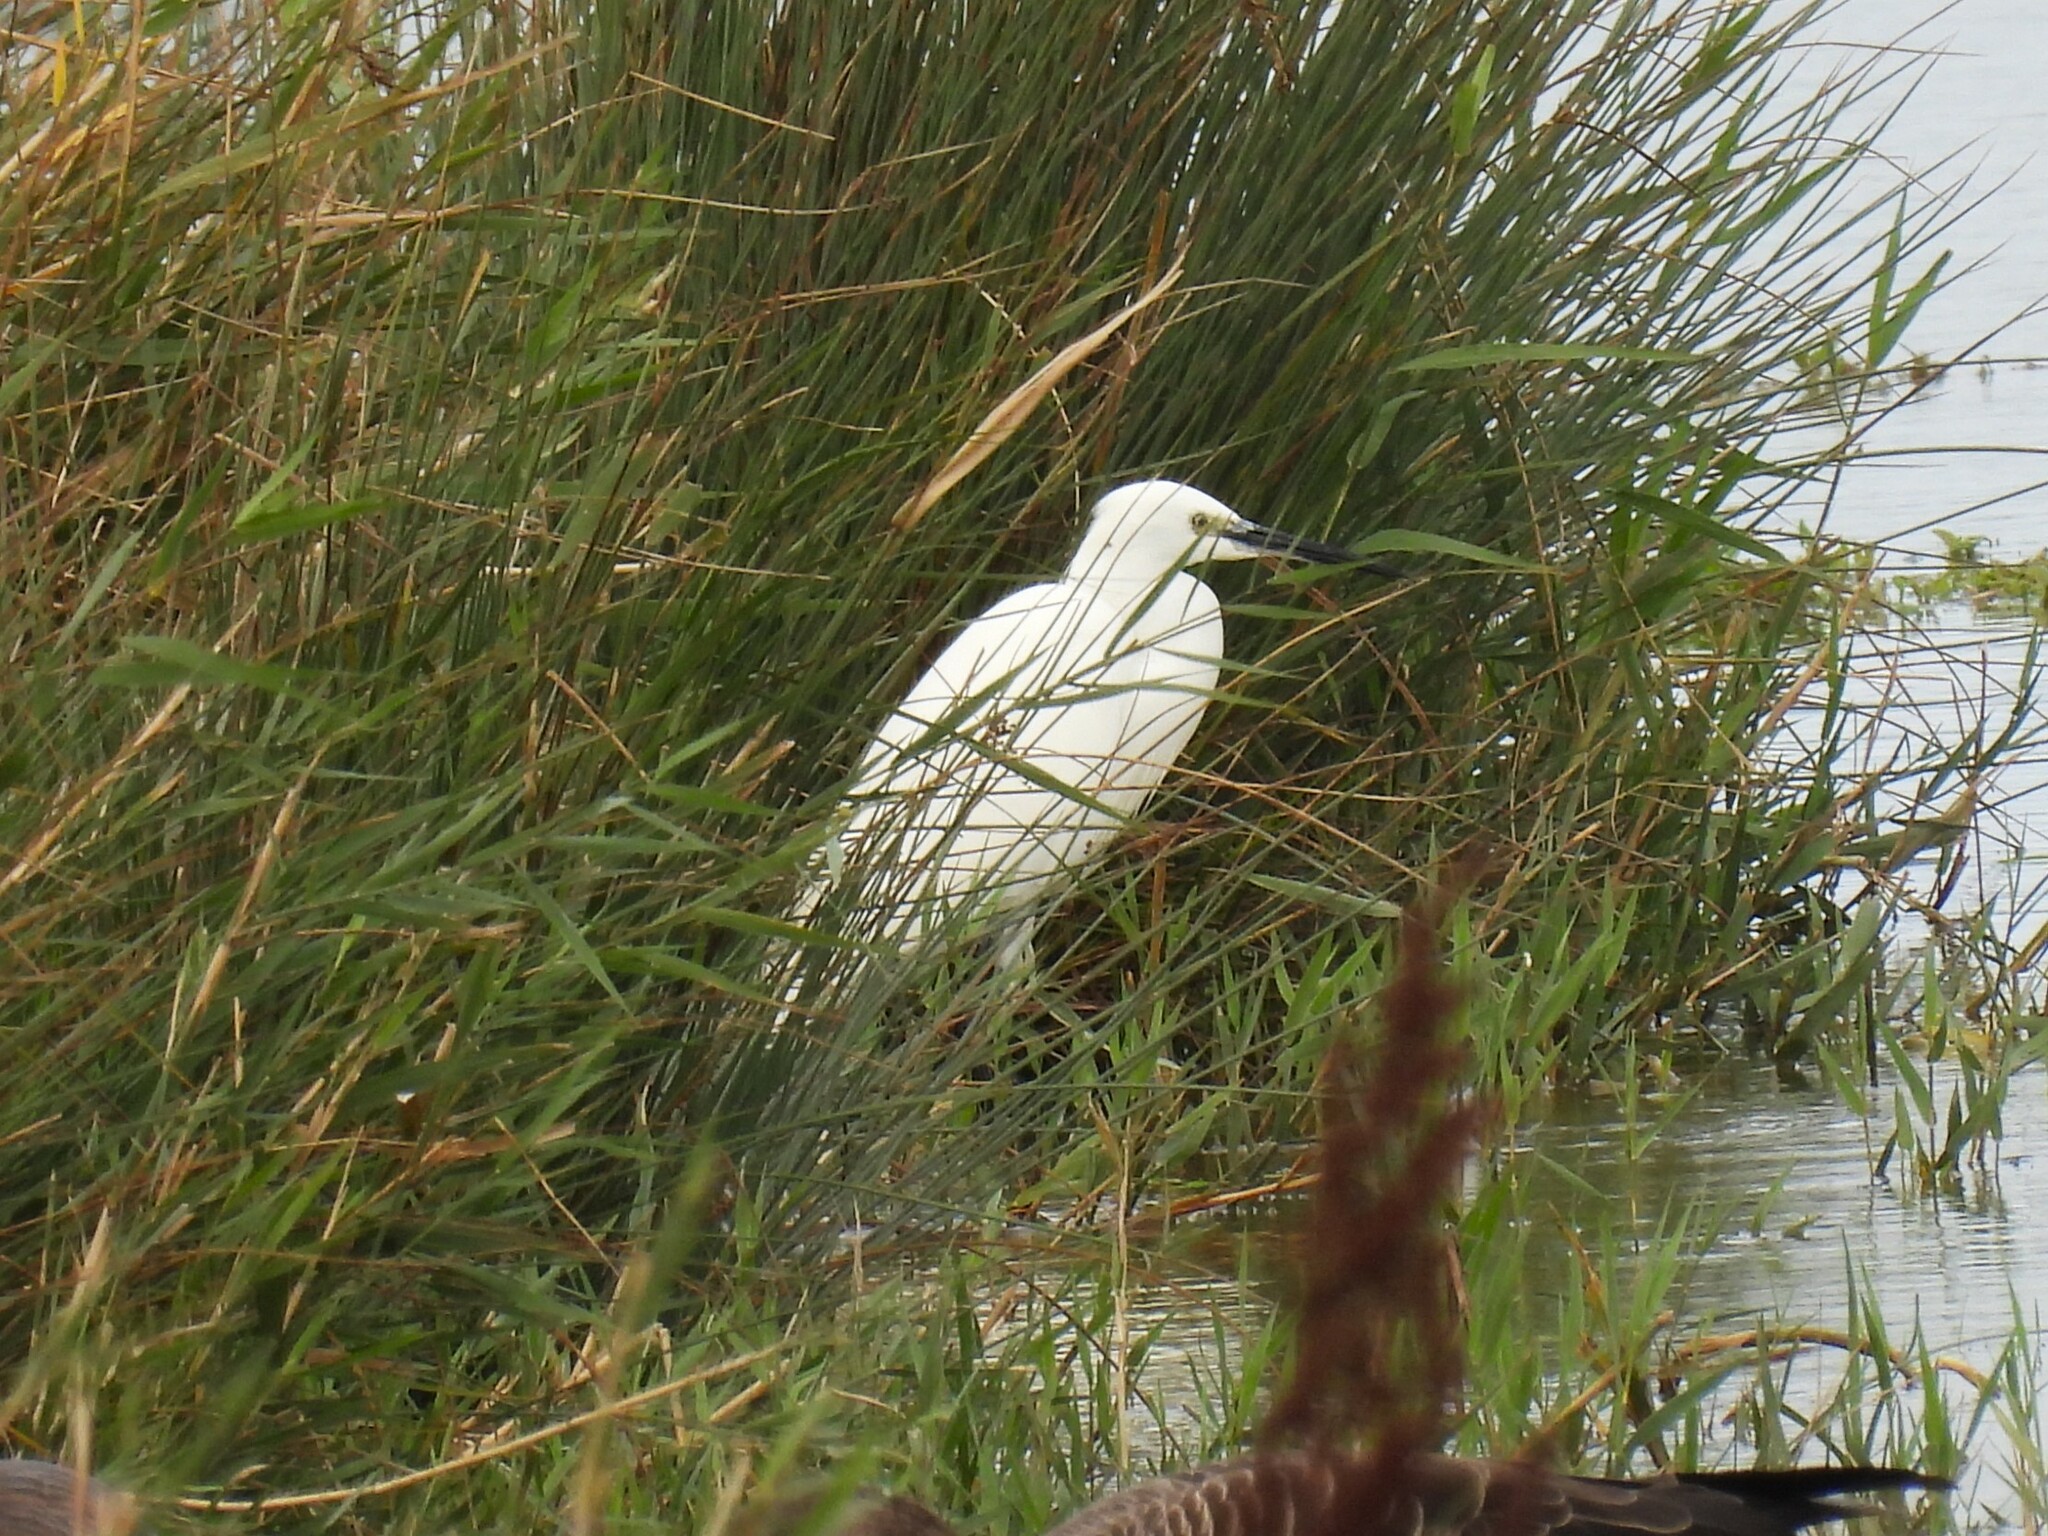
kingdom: Animalia
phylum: Chordata
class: Aves
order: Pelecaniformes
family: Ardeidae
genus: Egretta
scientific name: Egretta garzetta
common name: Little egret
